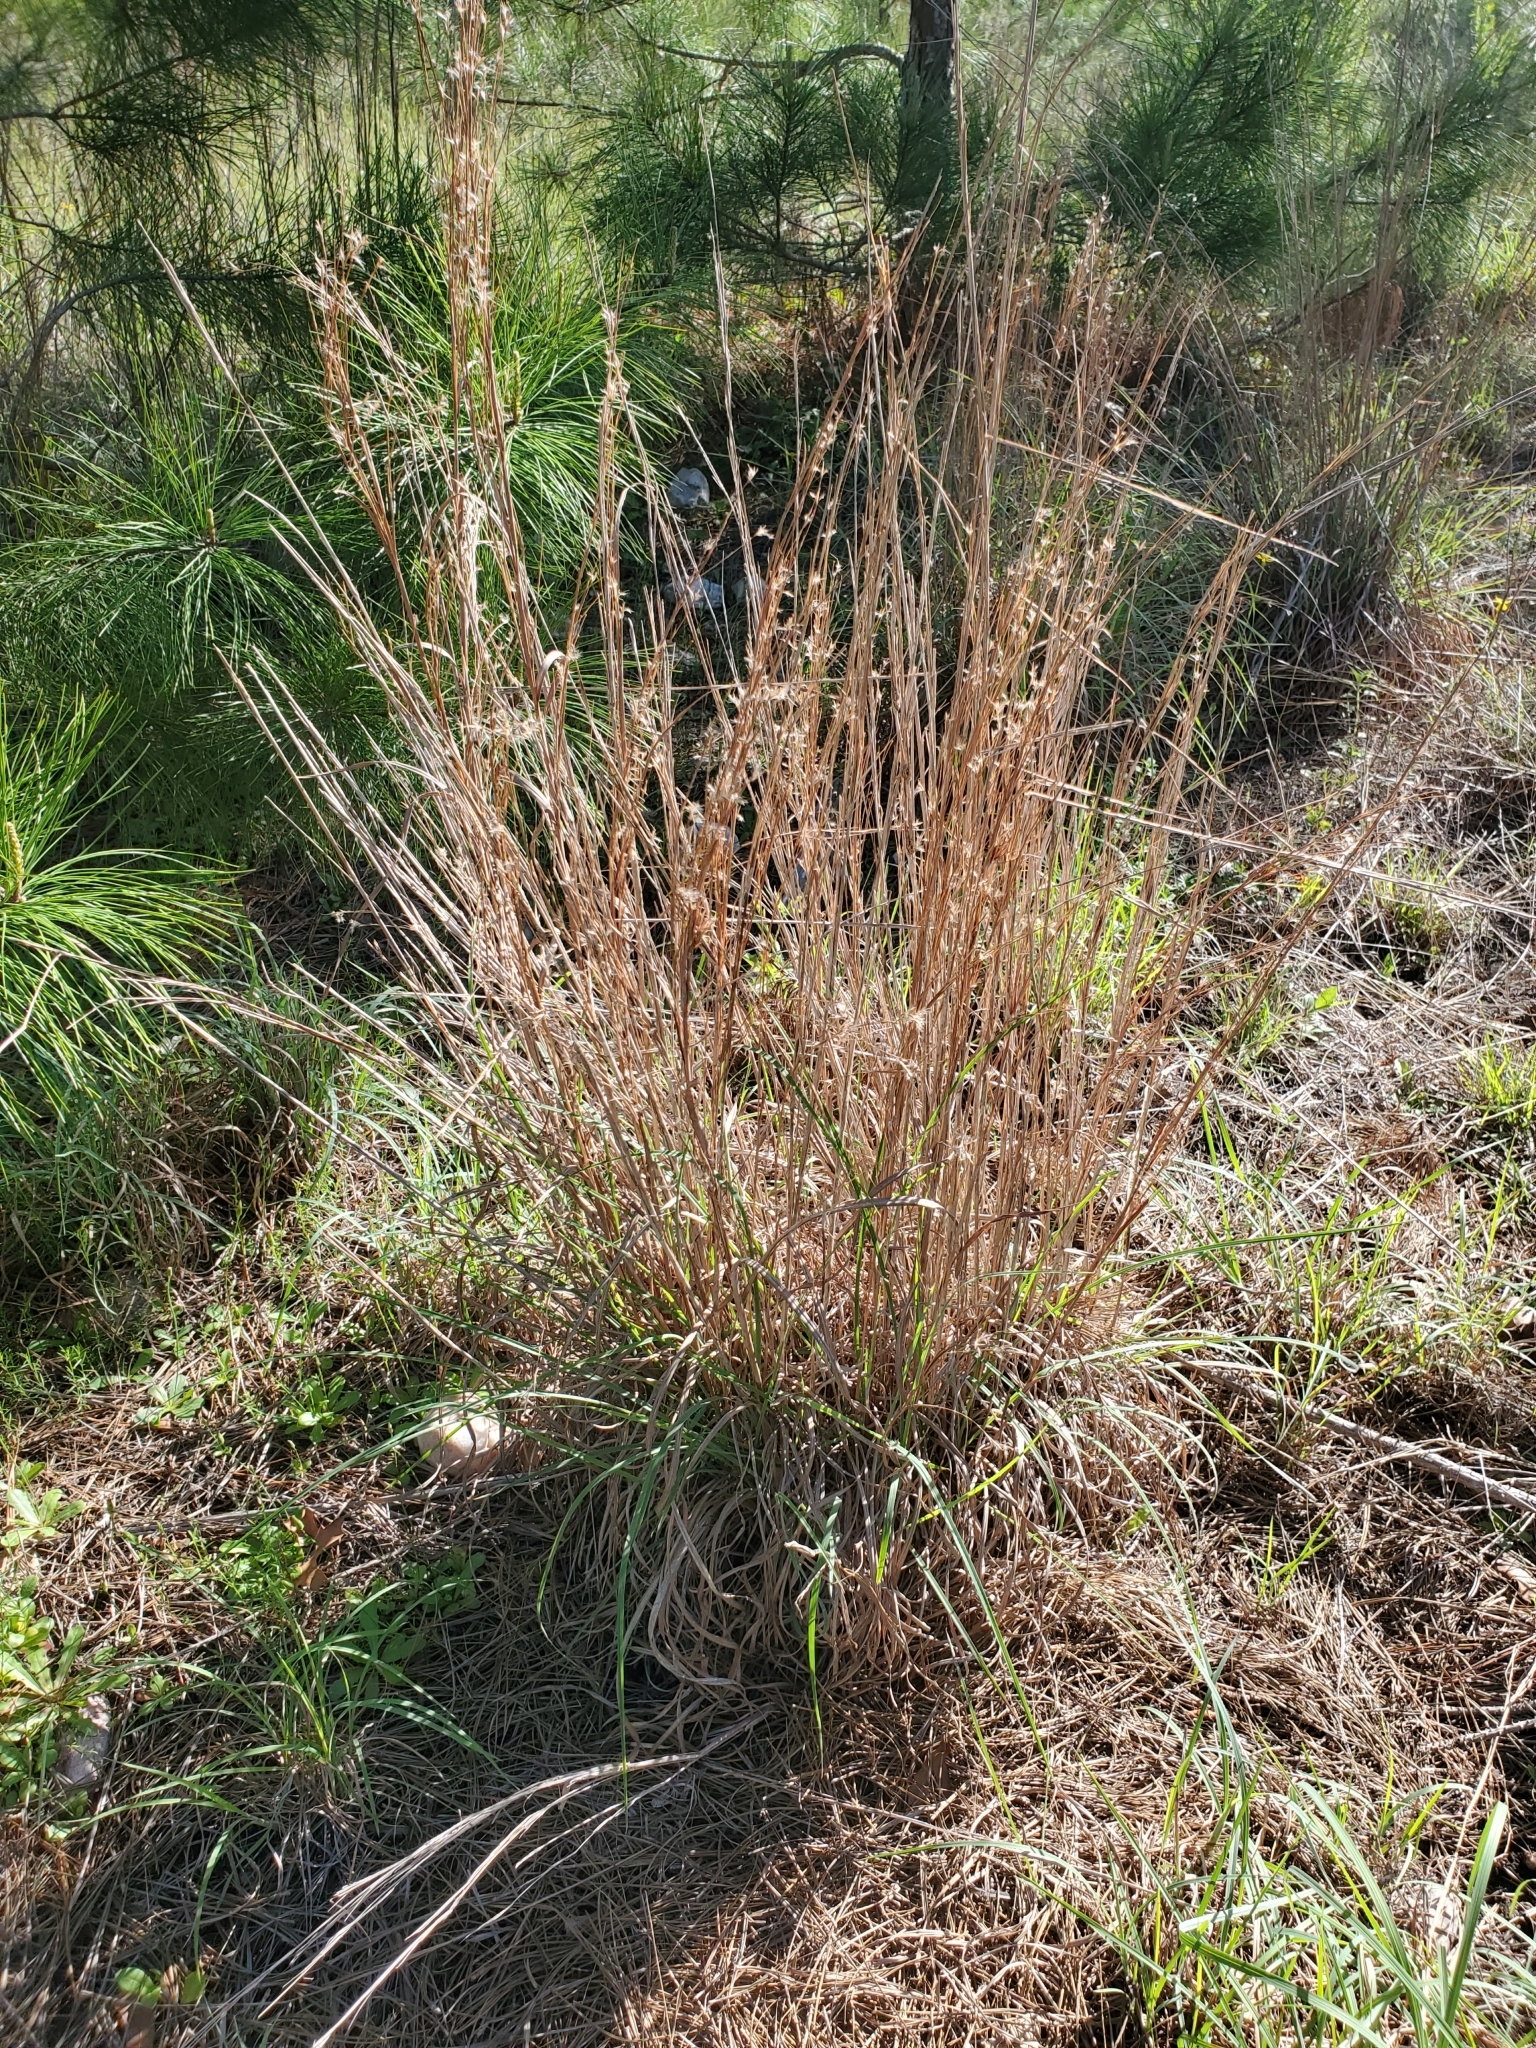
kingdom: Plantae
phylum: Tracheophyta
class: Liliopsida
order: Poales
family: Poaceae
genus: Schizachyrium
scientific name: Schizachyrium scoparium
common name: Little bluestem
